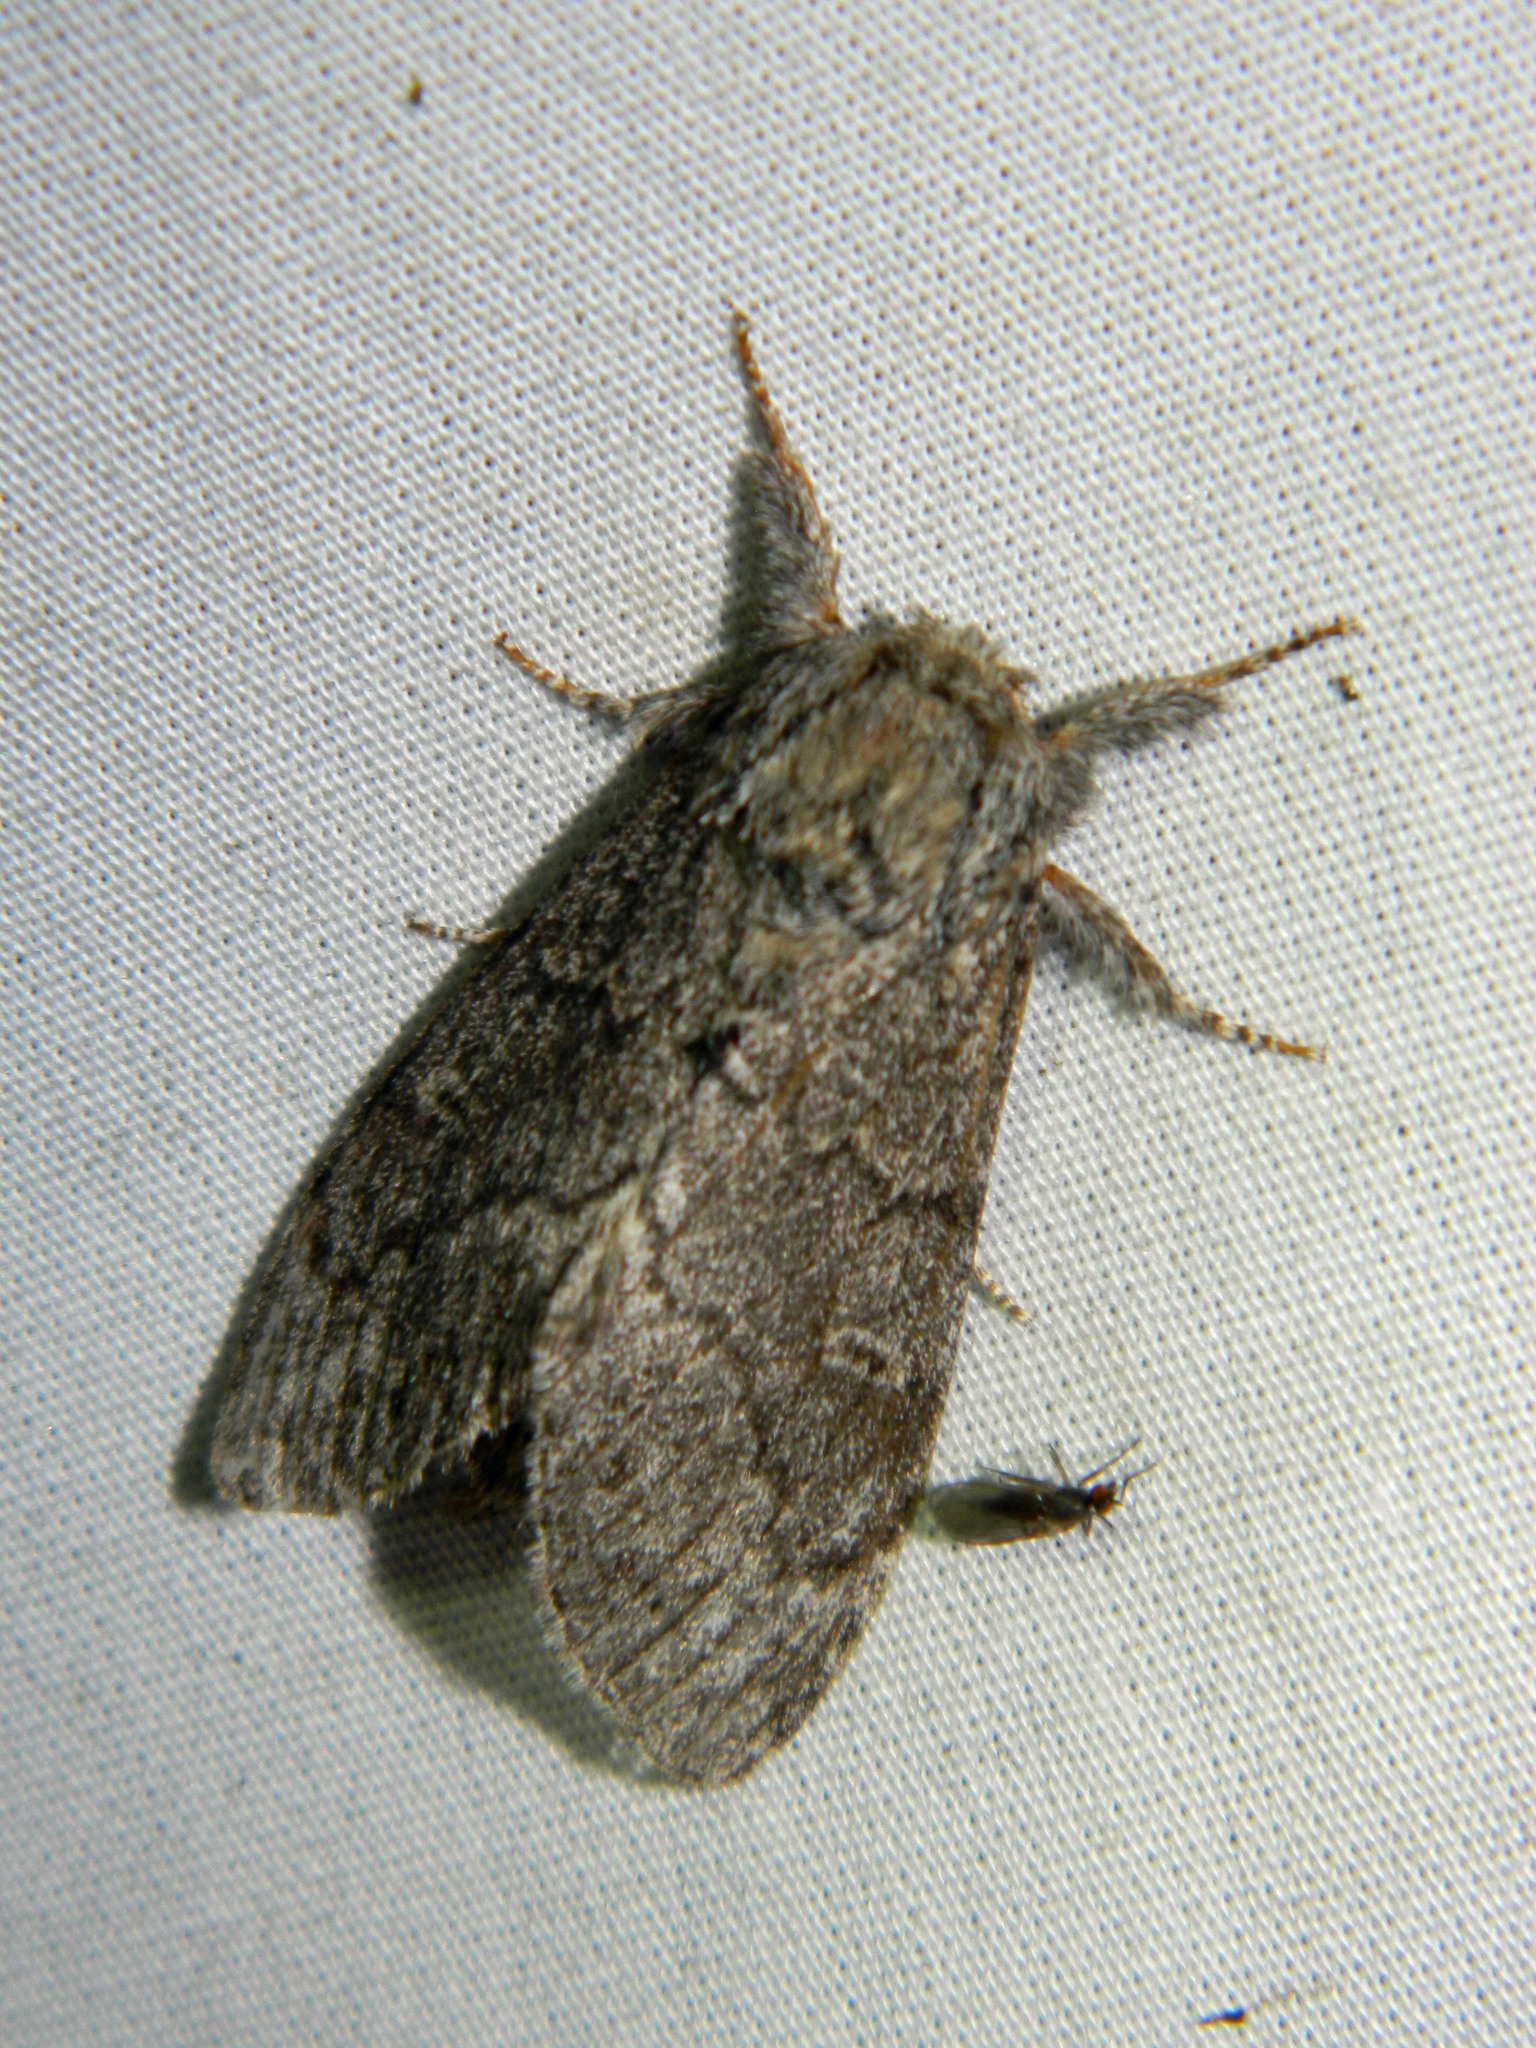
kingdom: Animalia
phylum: Arthropoda
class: Insecta
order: Lepidoptera
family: Notodontidae
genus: Notodonta
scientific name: Notodonta torva
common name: Large dark prominent
